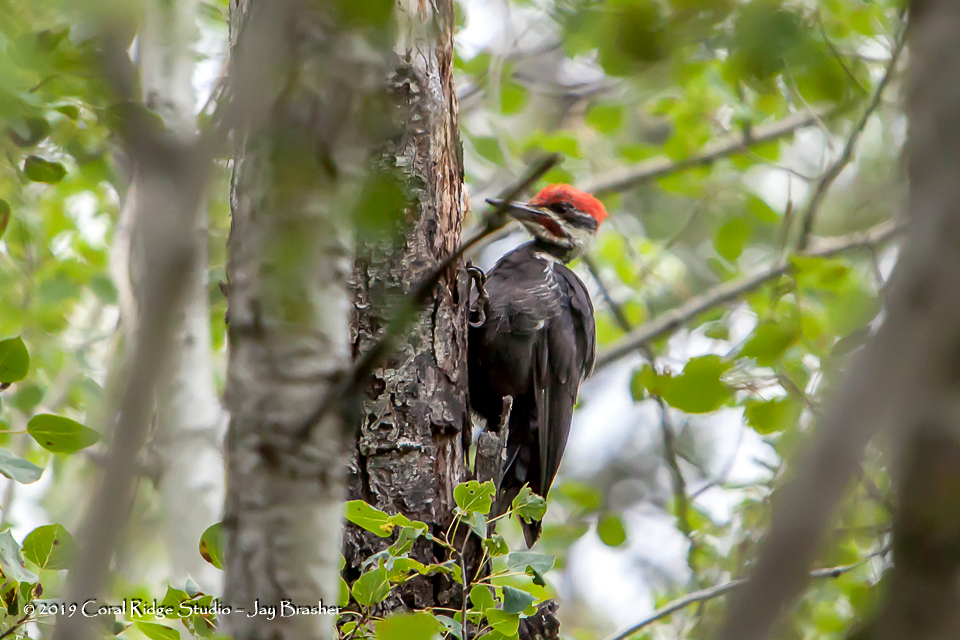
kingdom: Animalia
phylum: Chordata
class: Aves
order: Piciformes
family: Picidae
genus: Dryocopus
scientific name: Dryocopus pileatus
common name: Pileated woodpecker
